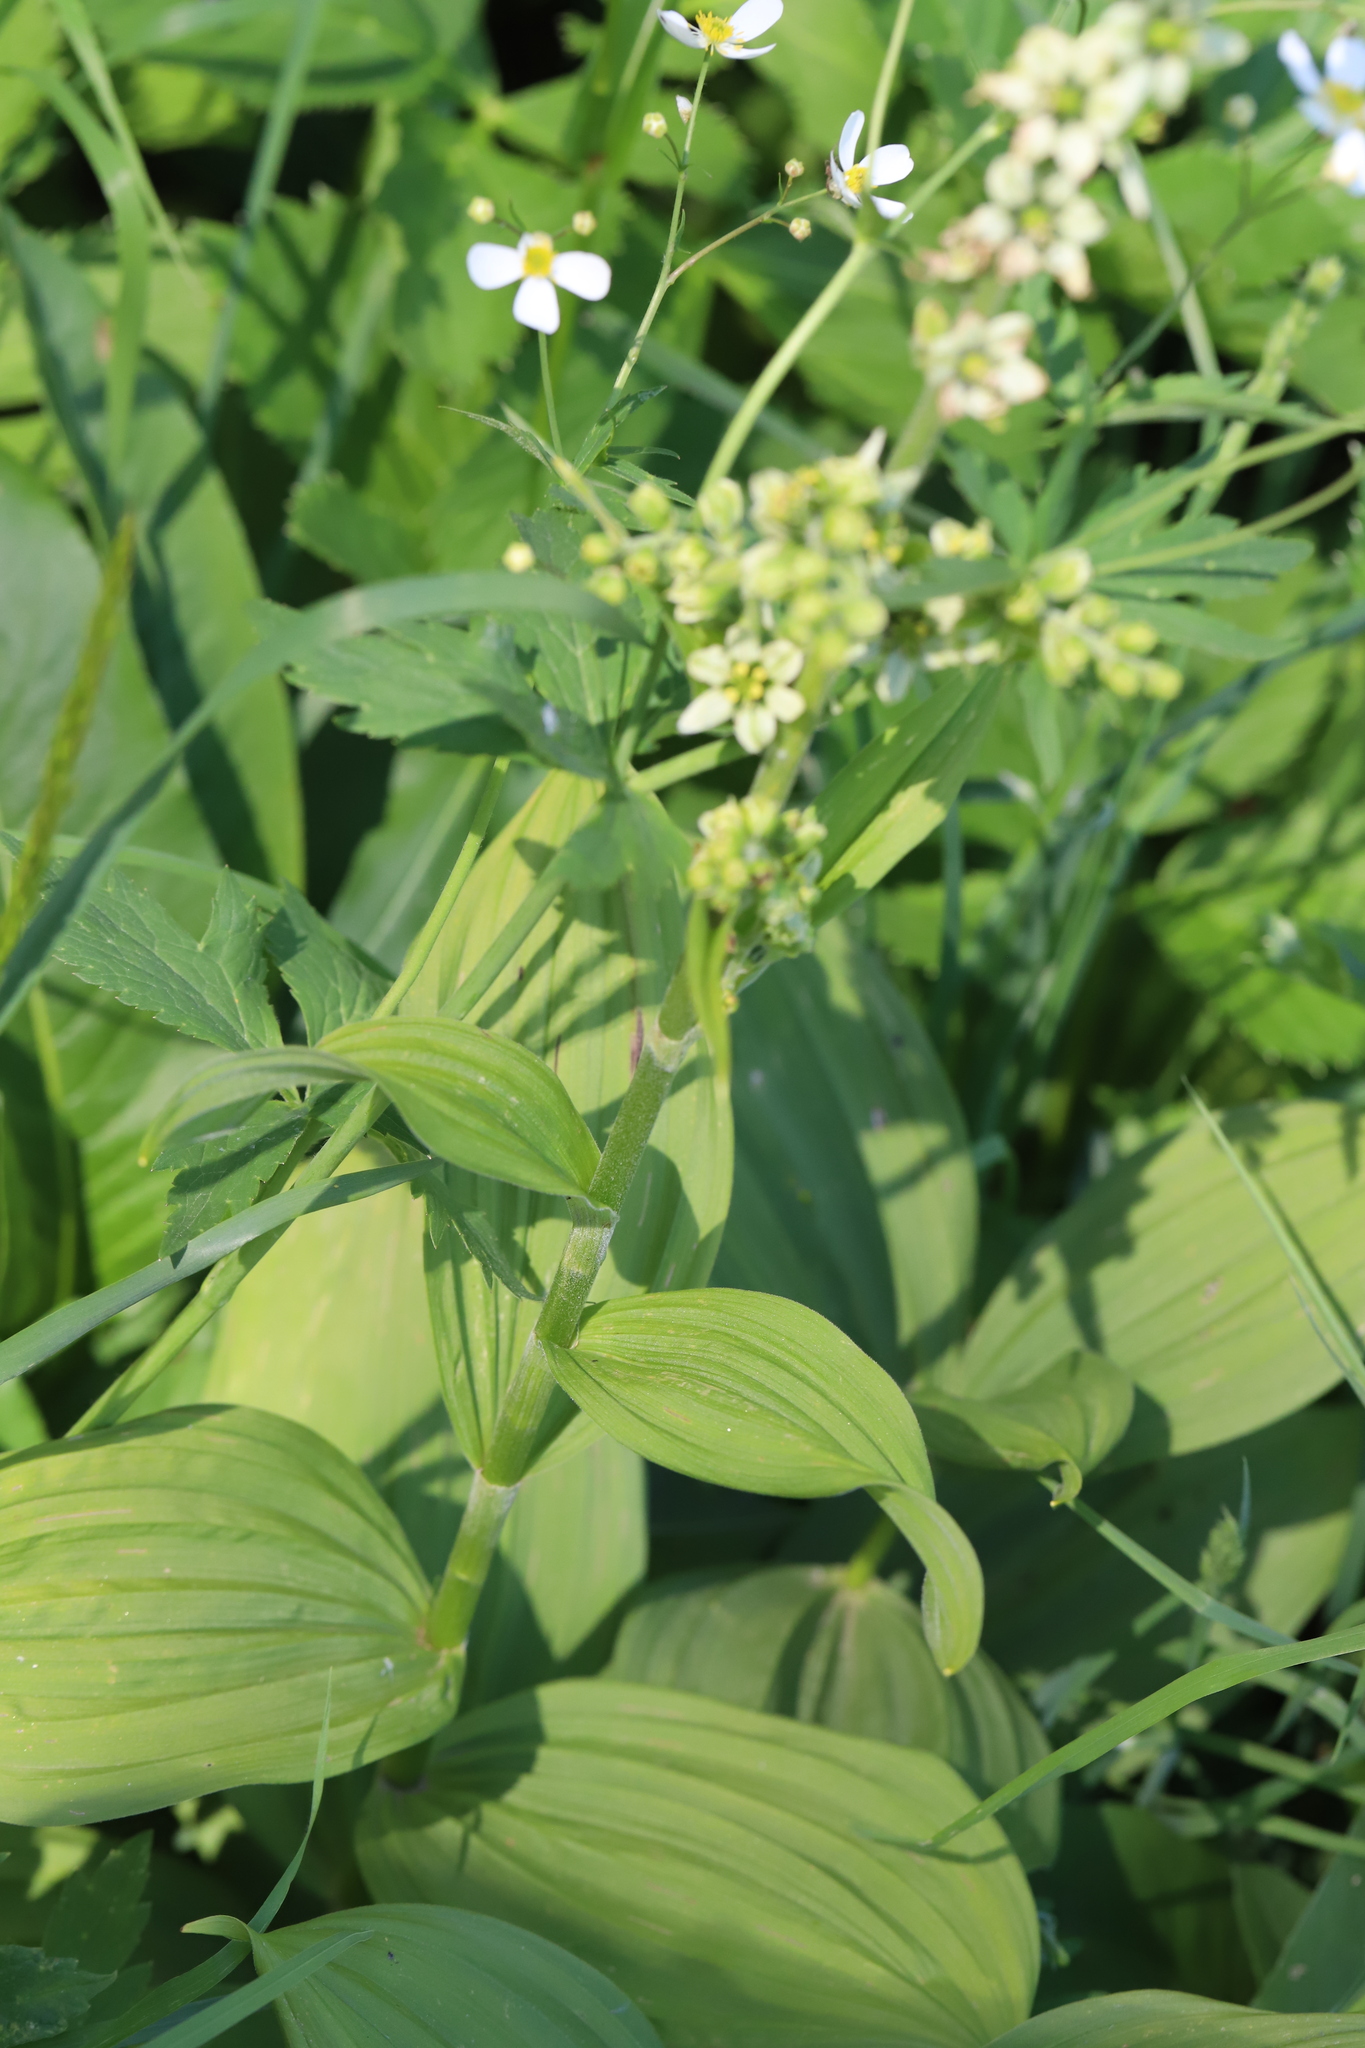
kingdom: Plantae
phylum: Tracheophyta
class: Liliopsida
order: Liliales
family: Melanthiaceae
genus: Veratrum
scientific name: Veratrum album
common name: White veratrum
